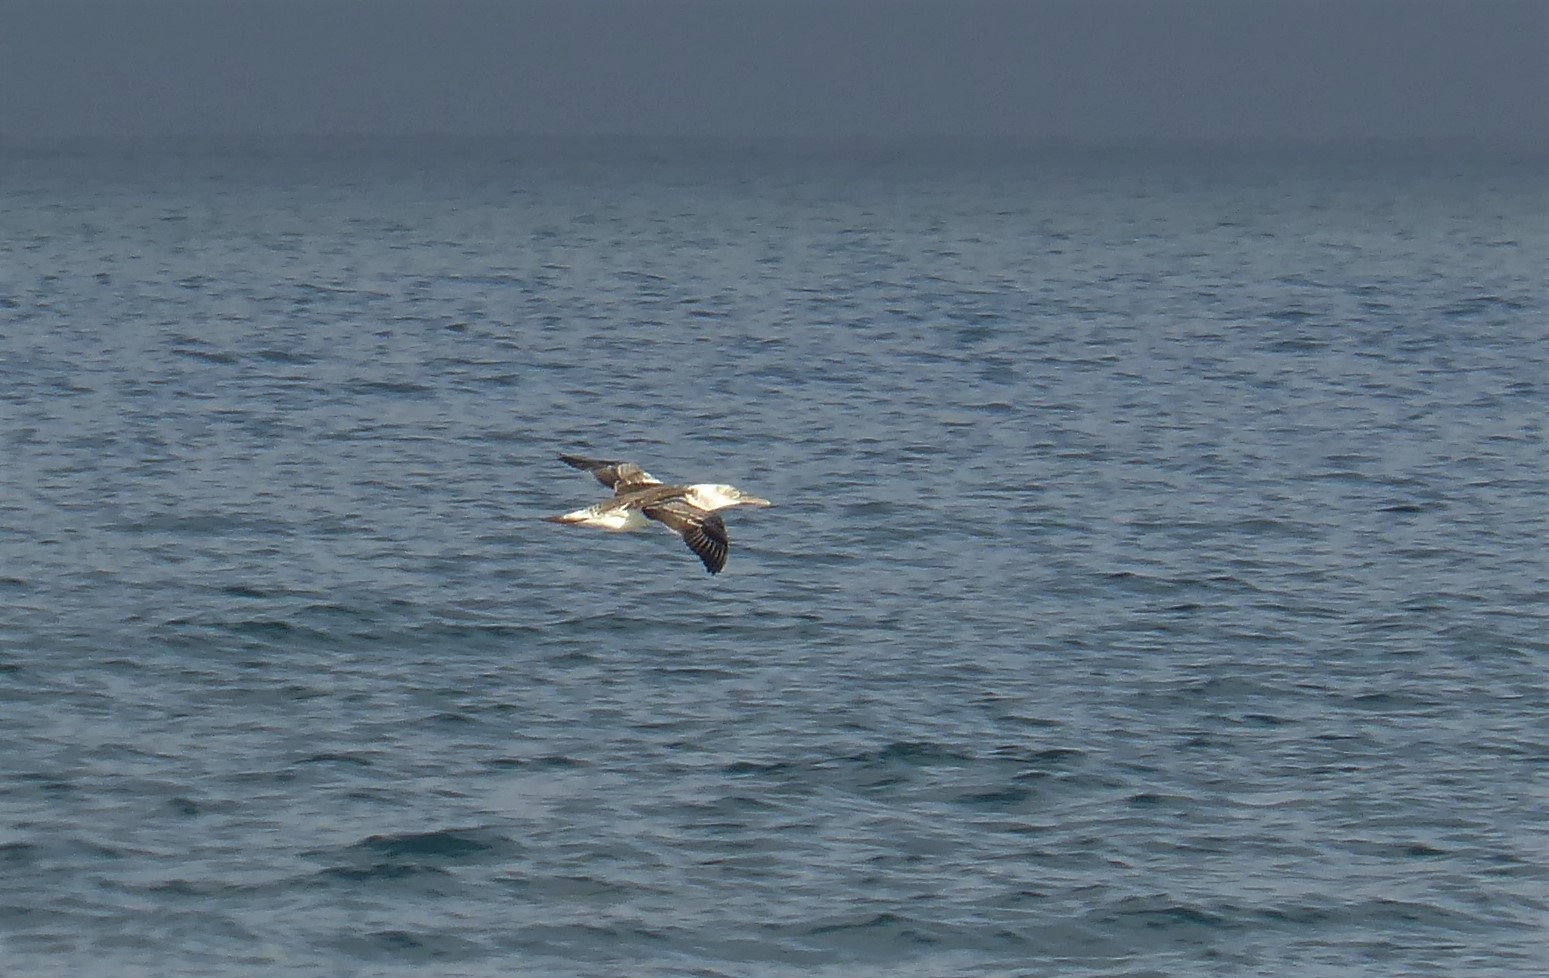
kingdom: Animalia
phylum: Chordata
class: Aves
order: Suliformes
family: Sulidae
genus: Morus
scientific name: Morus serrator
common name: Australasian gannet
